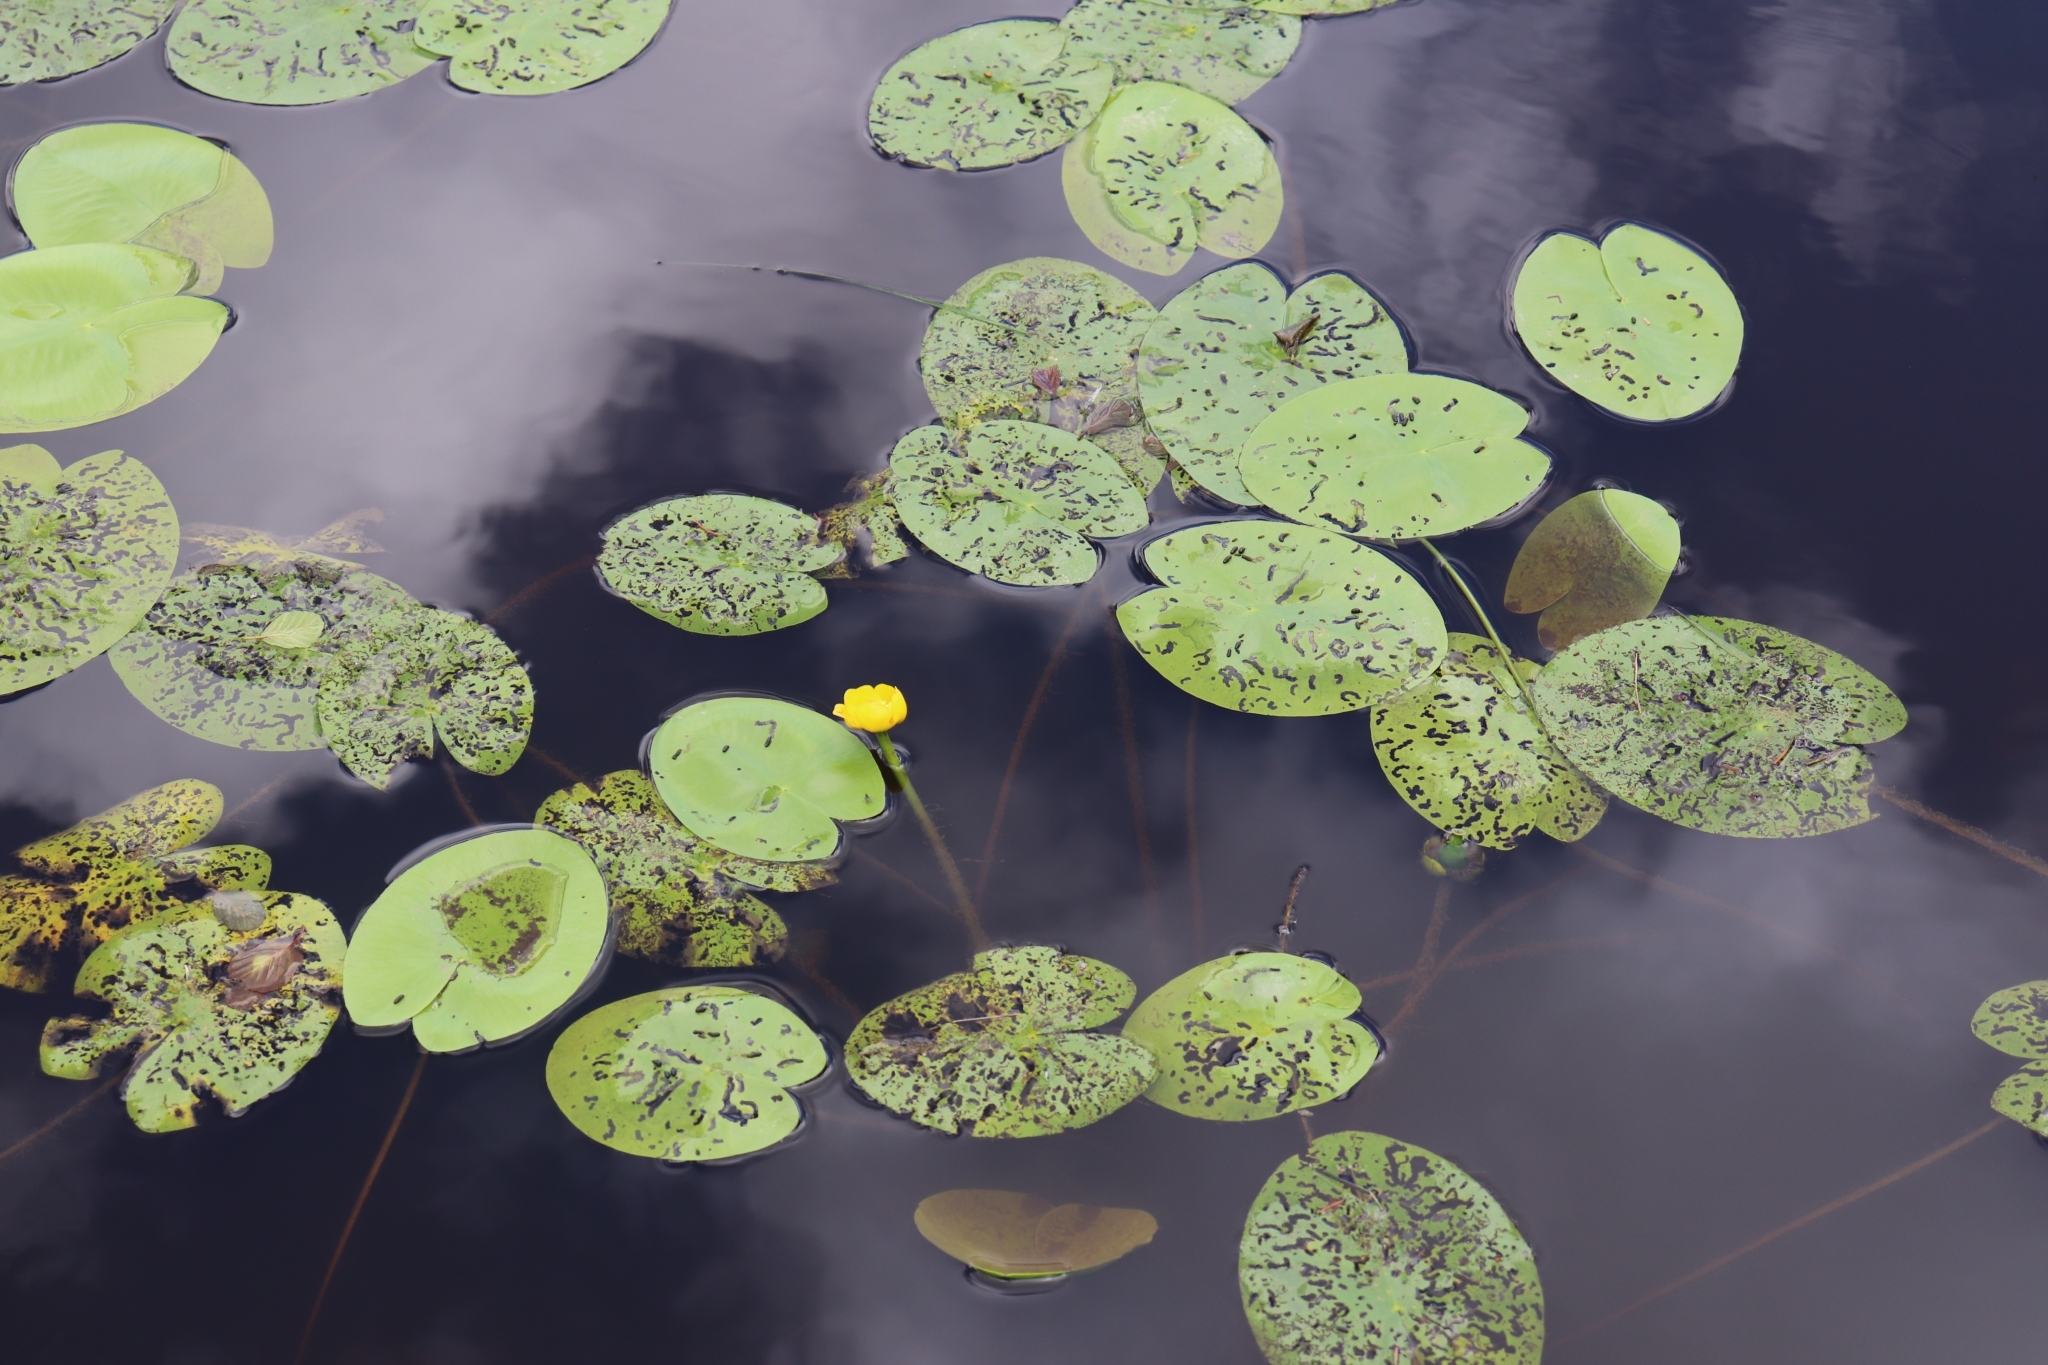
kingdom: Plantae
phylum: Tracheophyta
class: Magnoliopsida
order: Nymphaeales
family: Nymphaeaceae
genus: Nuphar
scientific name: Nuphar lutea
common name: Yellow water-lily
